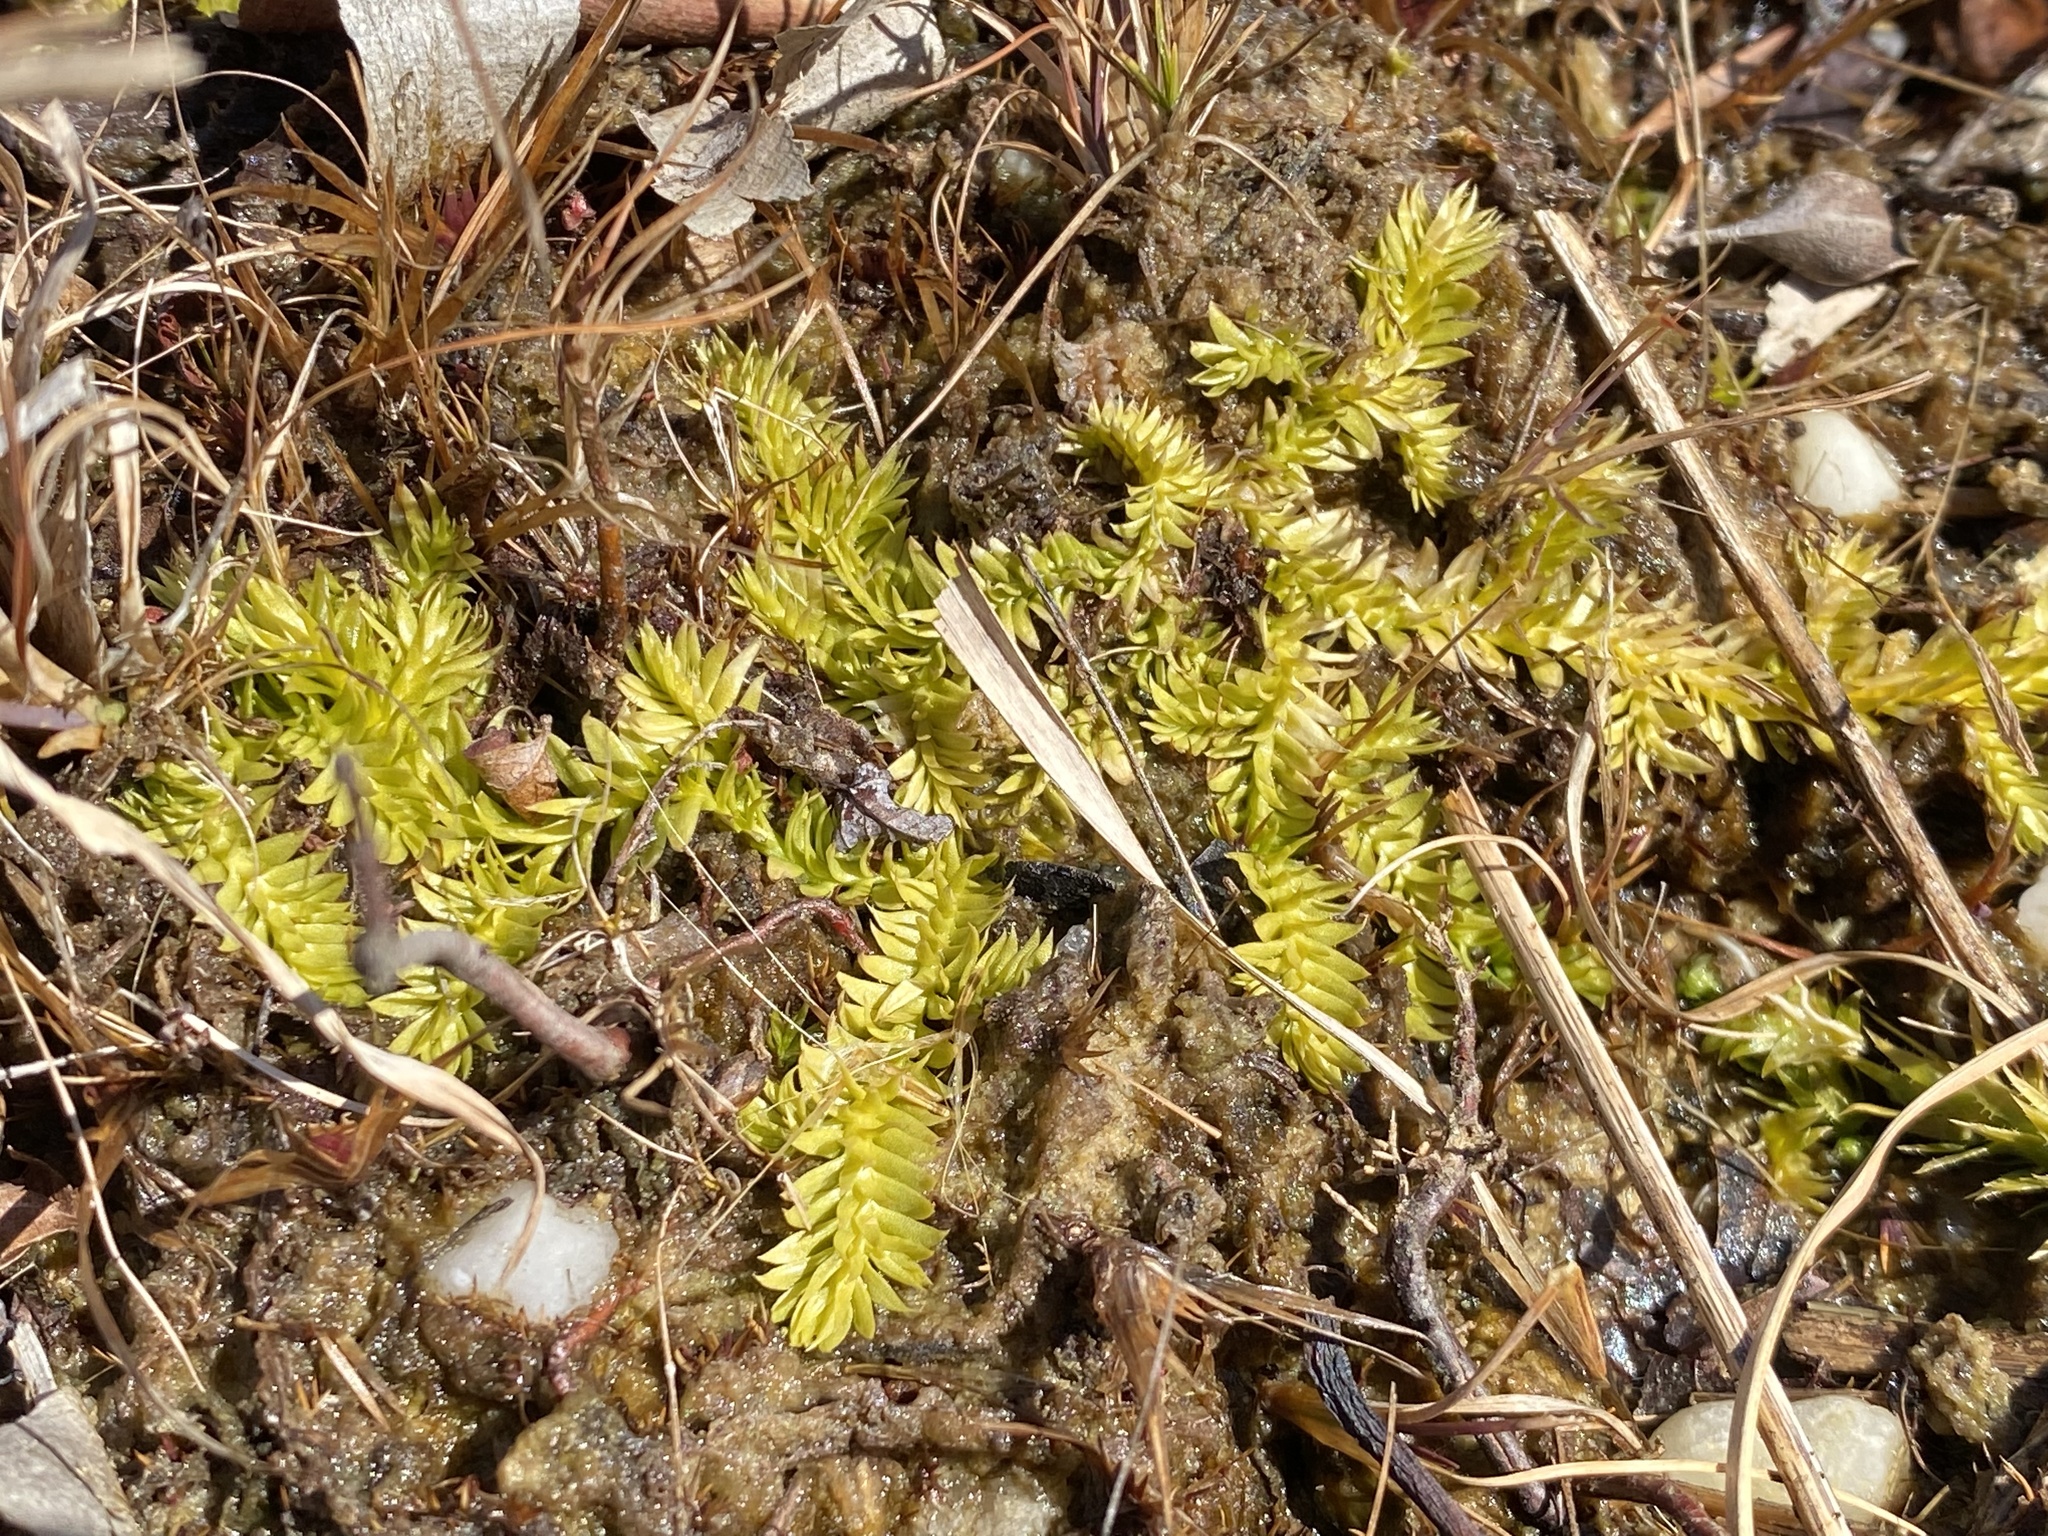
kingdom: Plantae
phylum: Tracheophyta
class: Lycopodiopsida
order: Lycopodiales
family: Lycopodiaceae
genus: Pseudolycopodiella
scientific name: Pseudolycopodiella caroliniana
